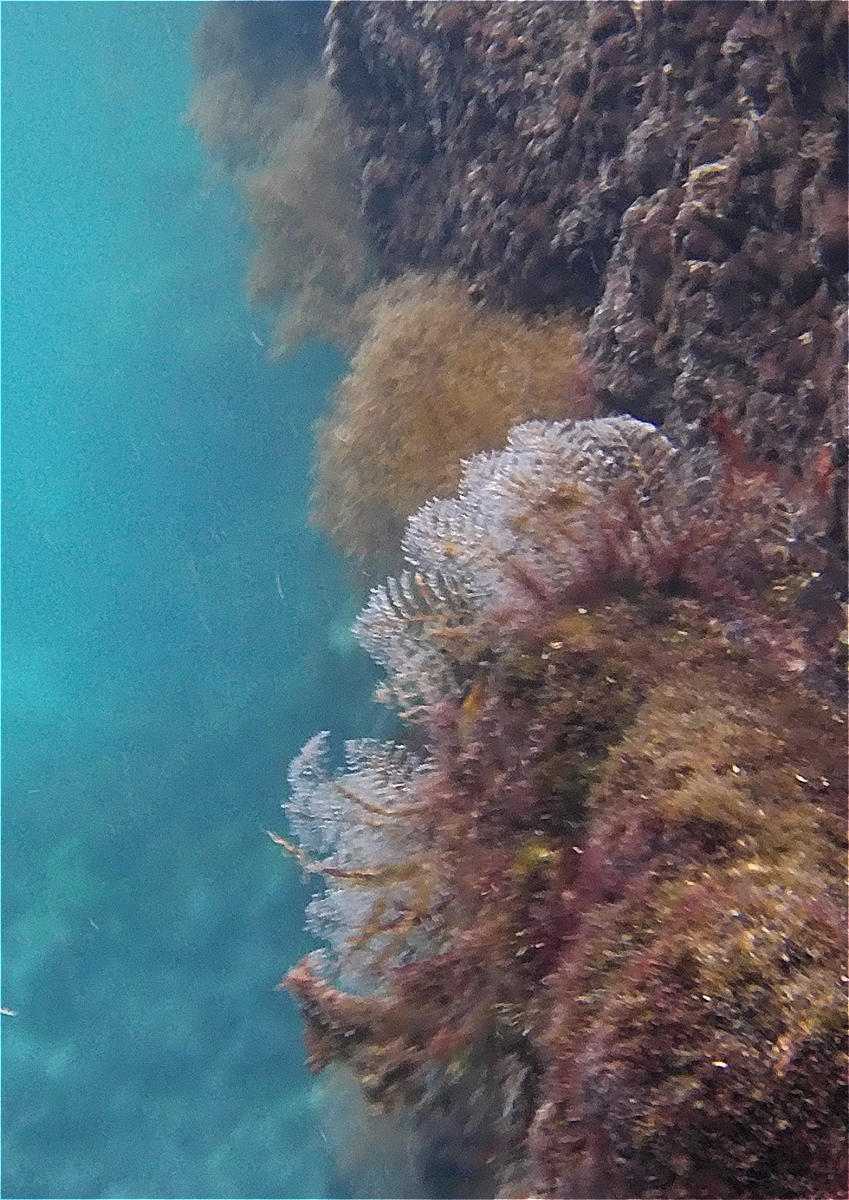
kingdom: Animalia
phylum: Cnidaria
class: Hydrozoa
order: Anthoathecata
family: Pennariidae
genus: Pennaria
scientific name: Pennaria disticha
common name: Feather hydroid
